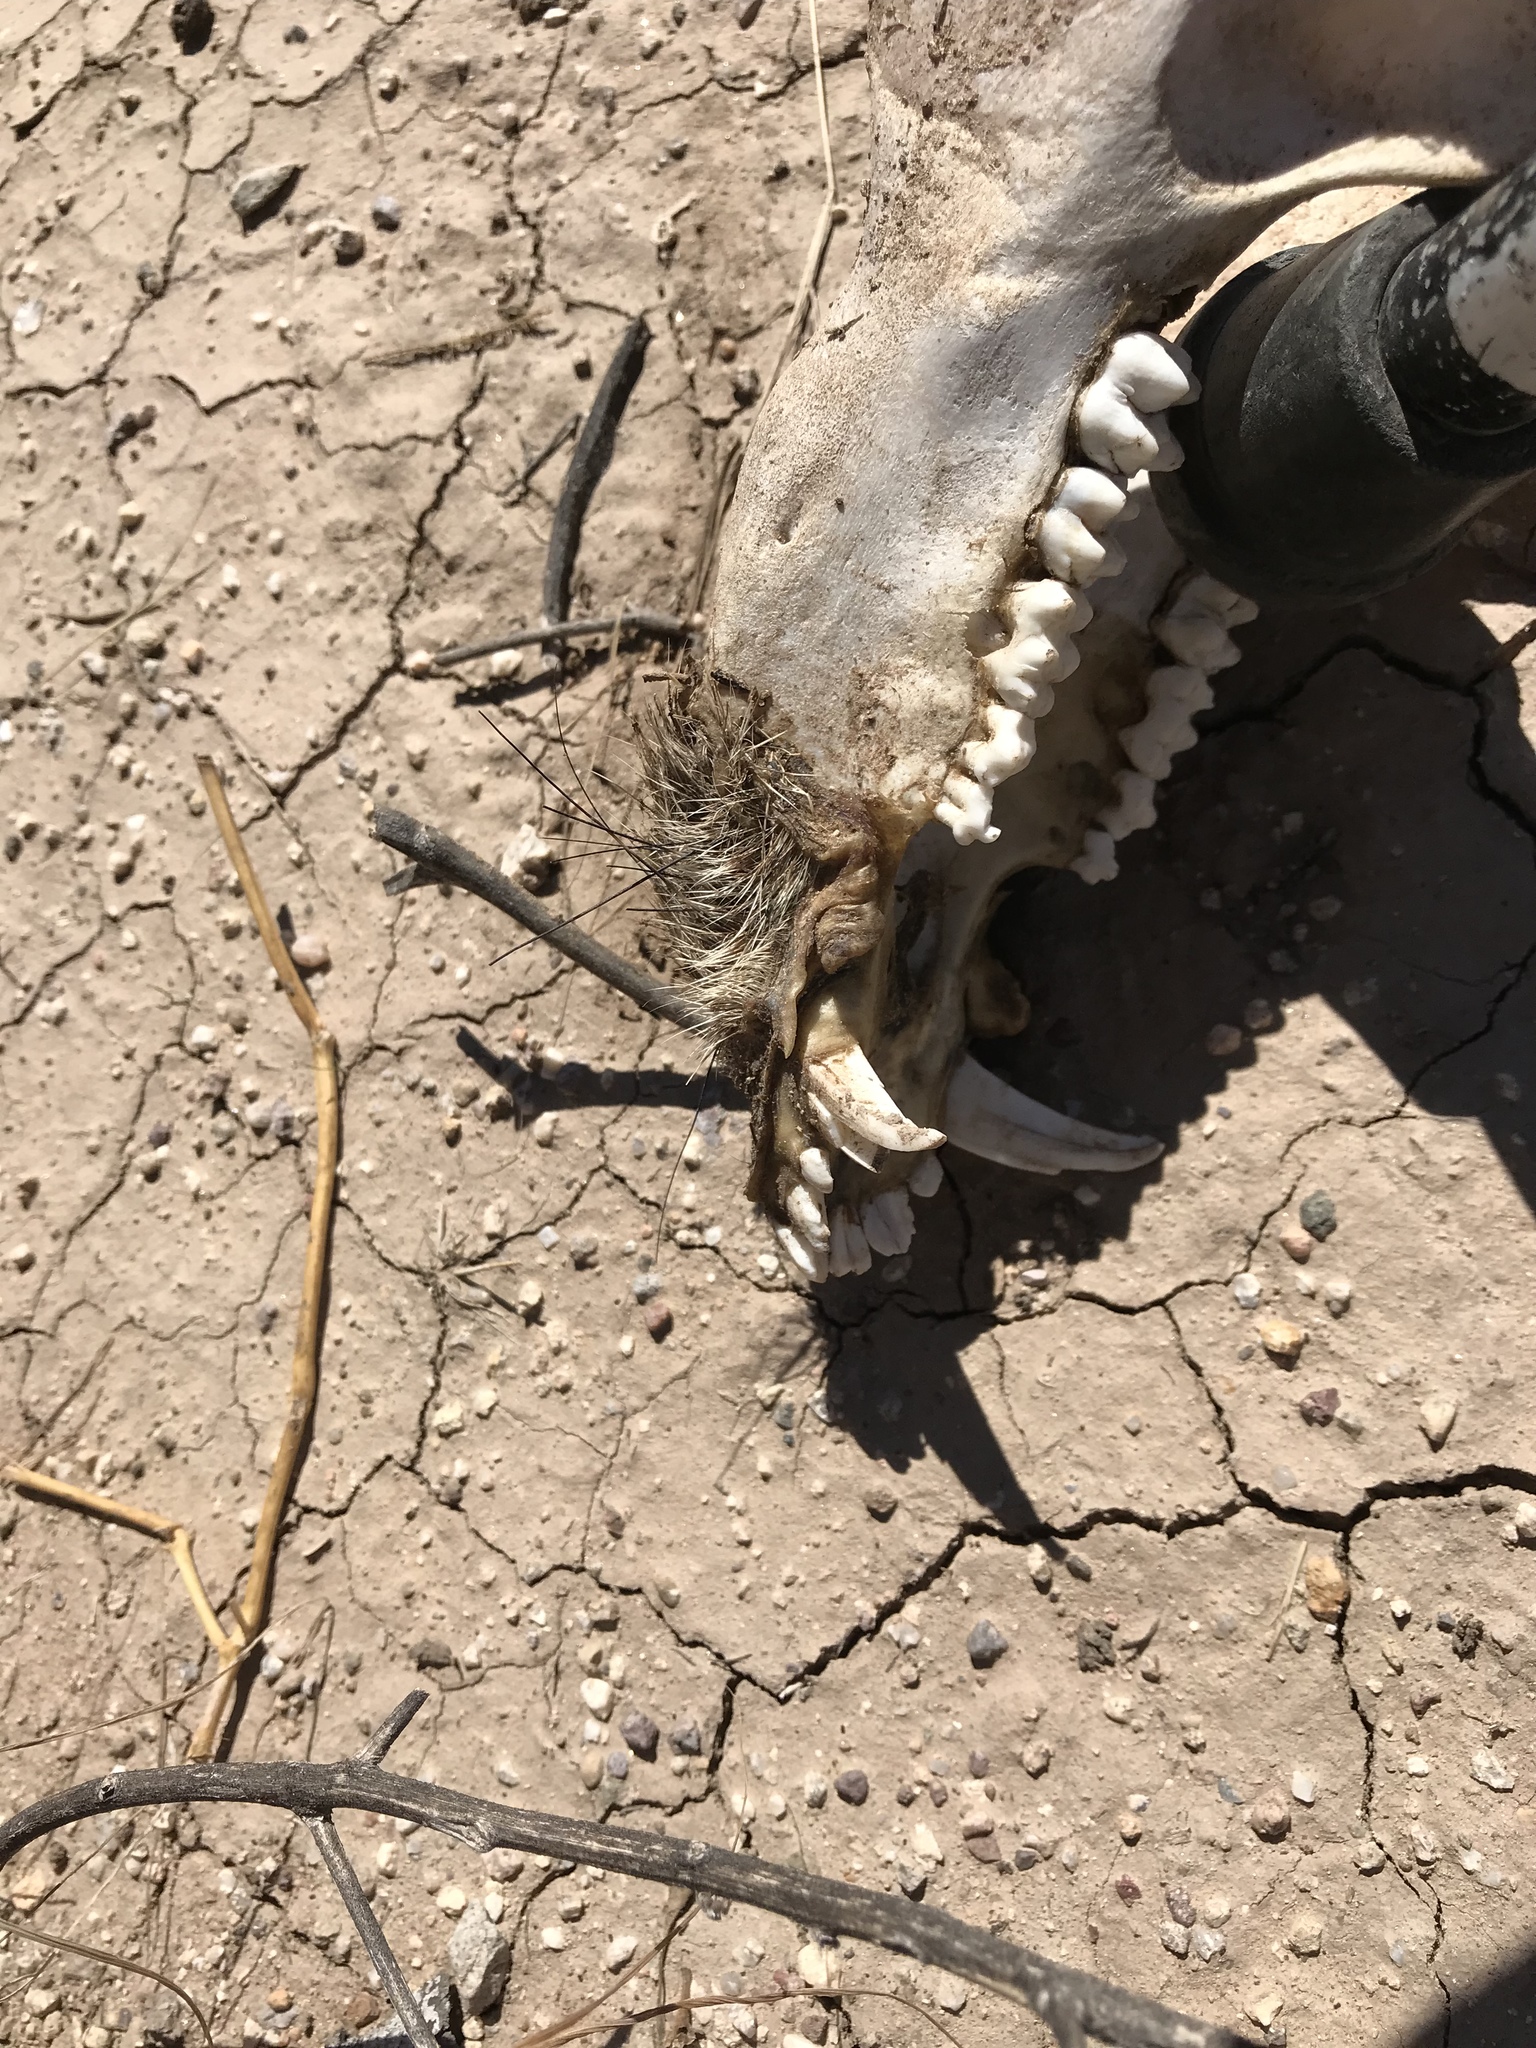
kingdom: Animalia
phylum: Chordata
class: Mammalia
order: Artiodactyla
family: Tayassuidae
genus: Pecari
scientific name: Pecari tajacu
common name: Collared peccary
